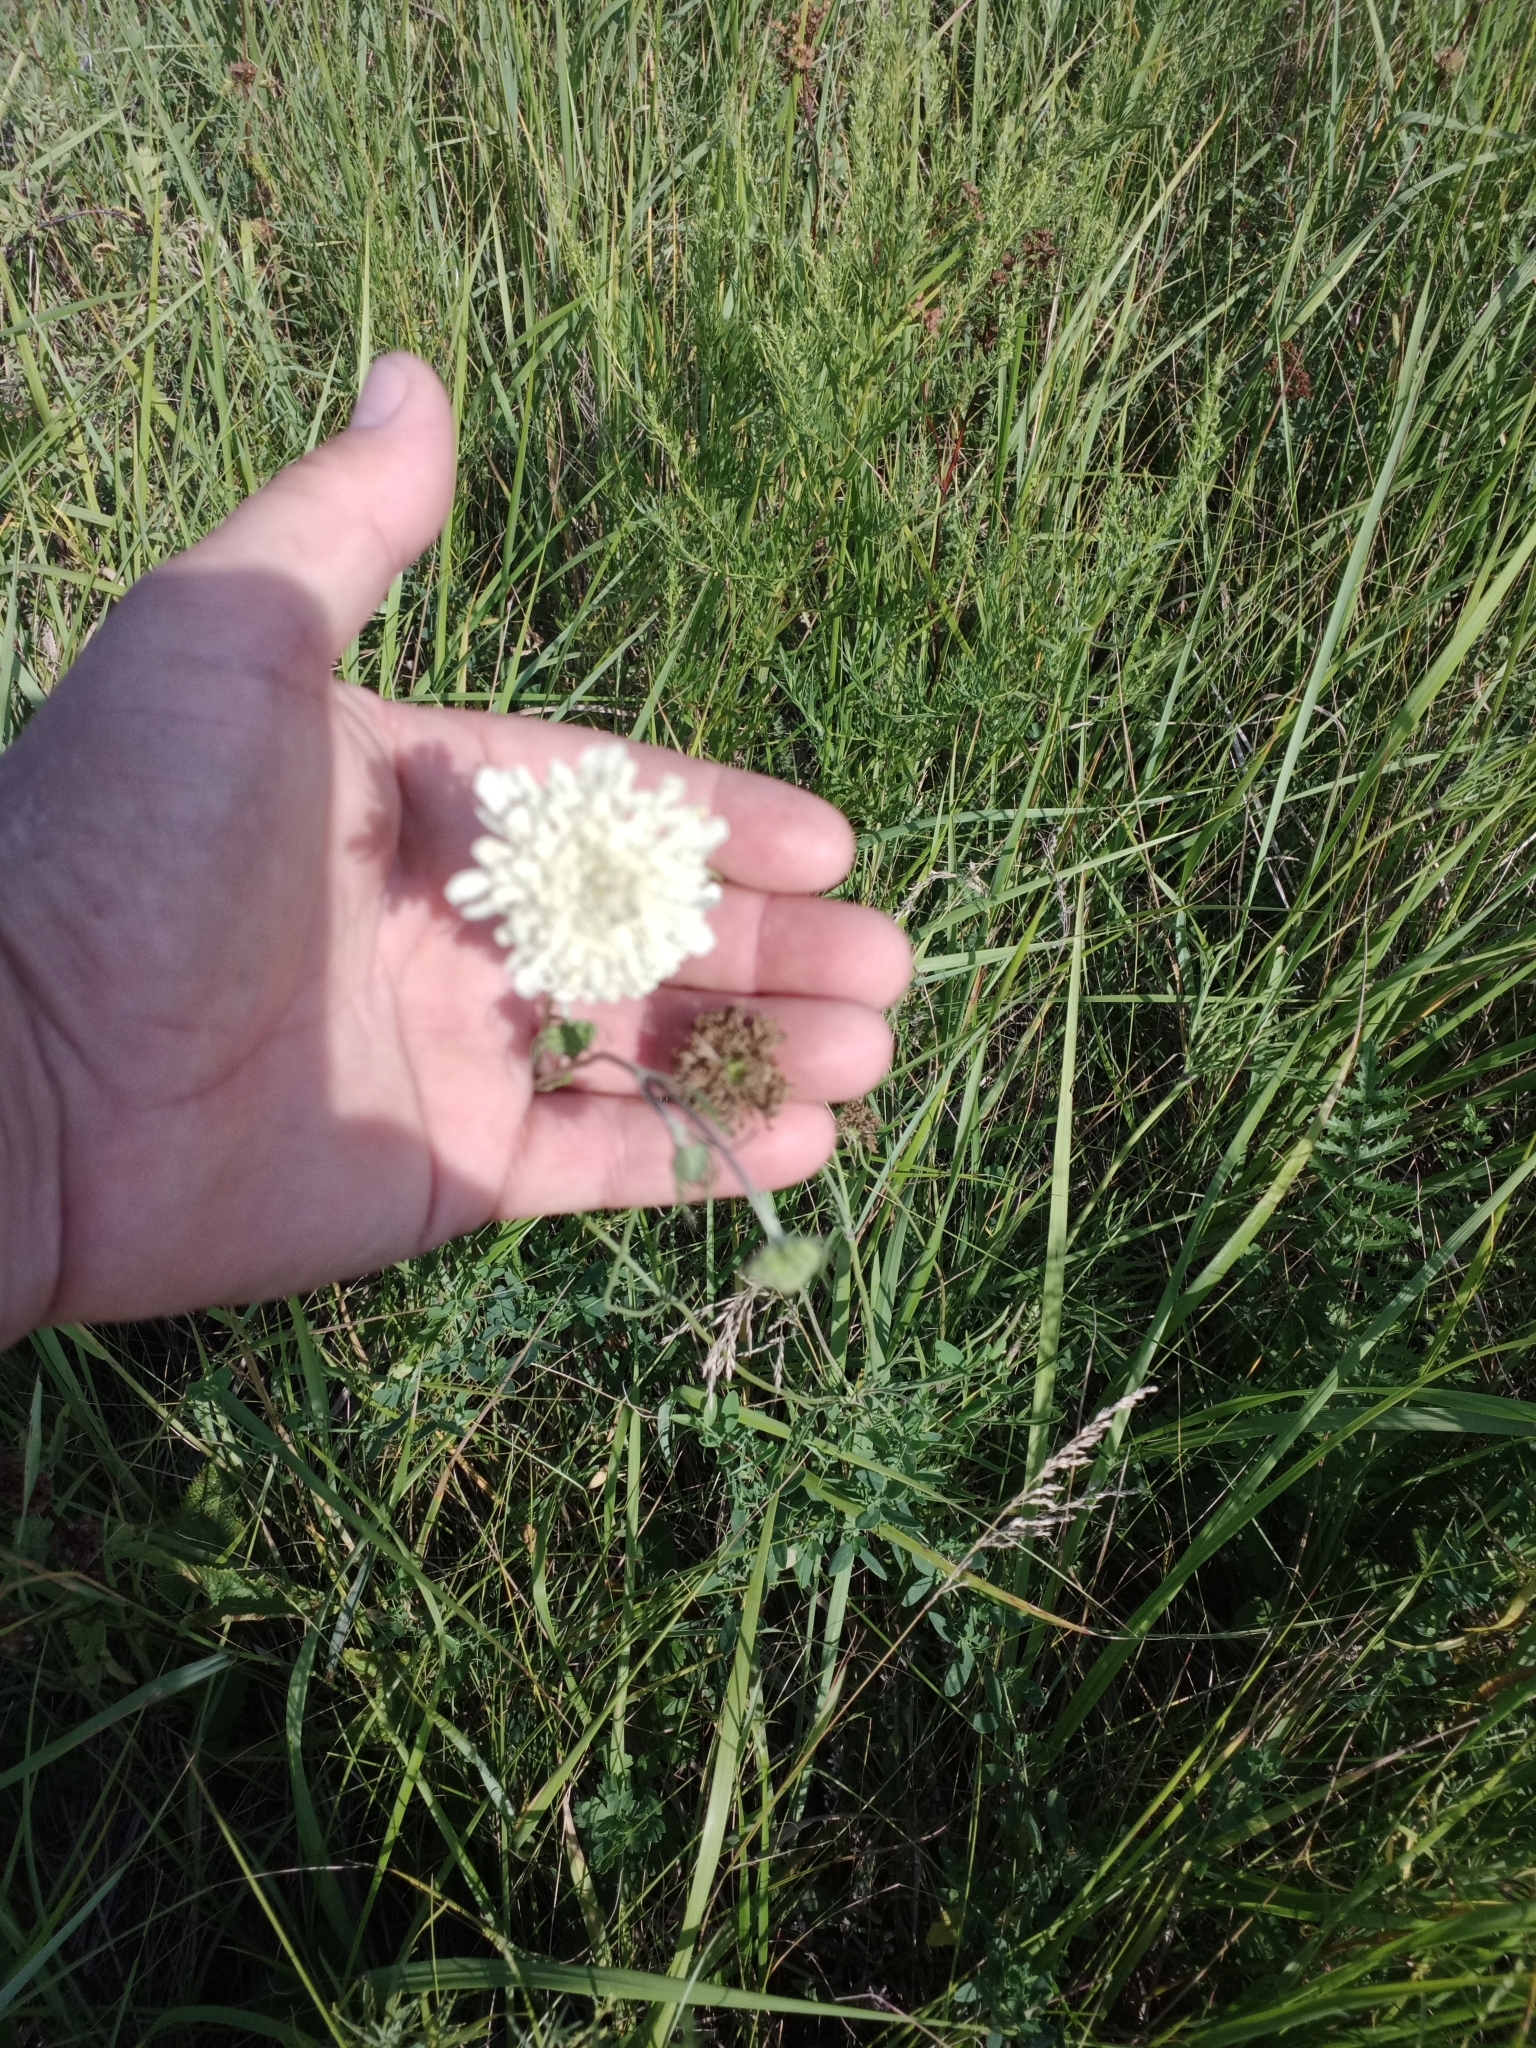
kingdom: Plantae
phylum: Tracheophyta
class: Magnoliopsida
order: Dipsacales
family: Caprifoliaceae
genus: Scabiosa
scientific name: Scabiosa ochroleuca
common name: Cream pincushions
